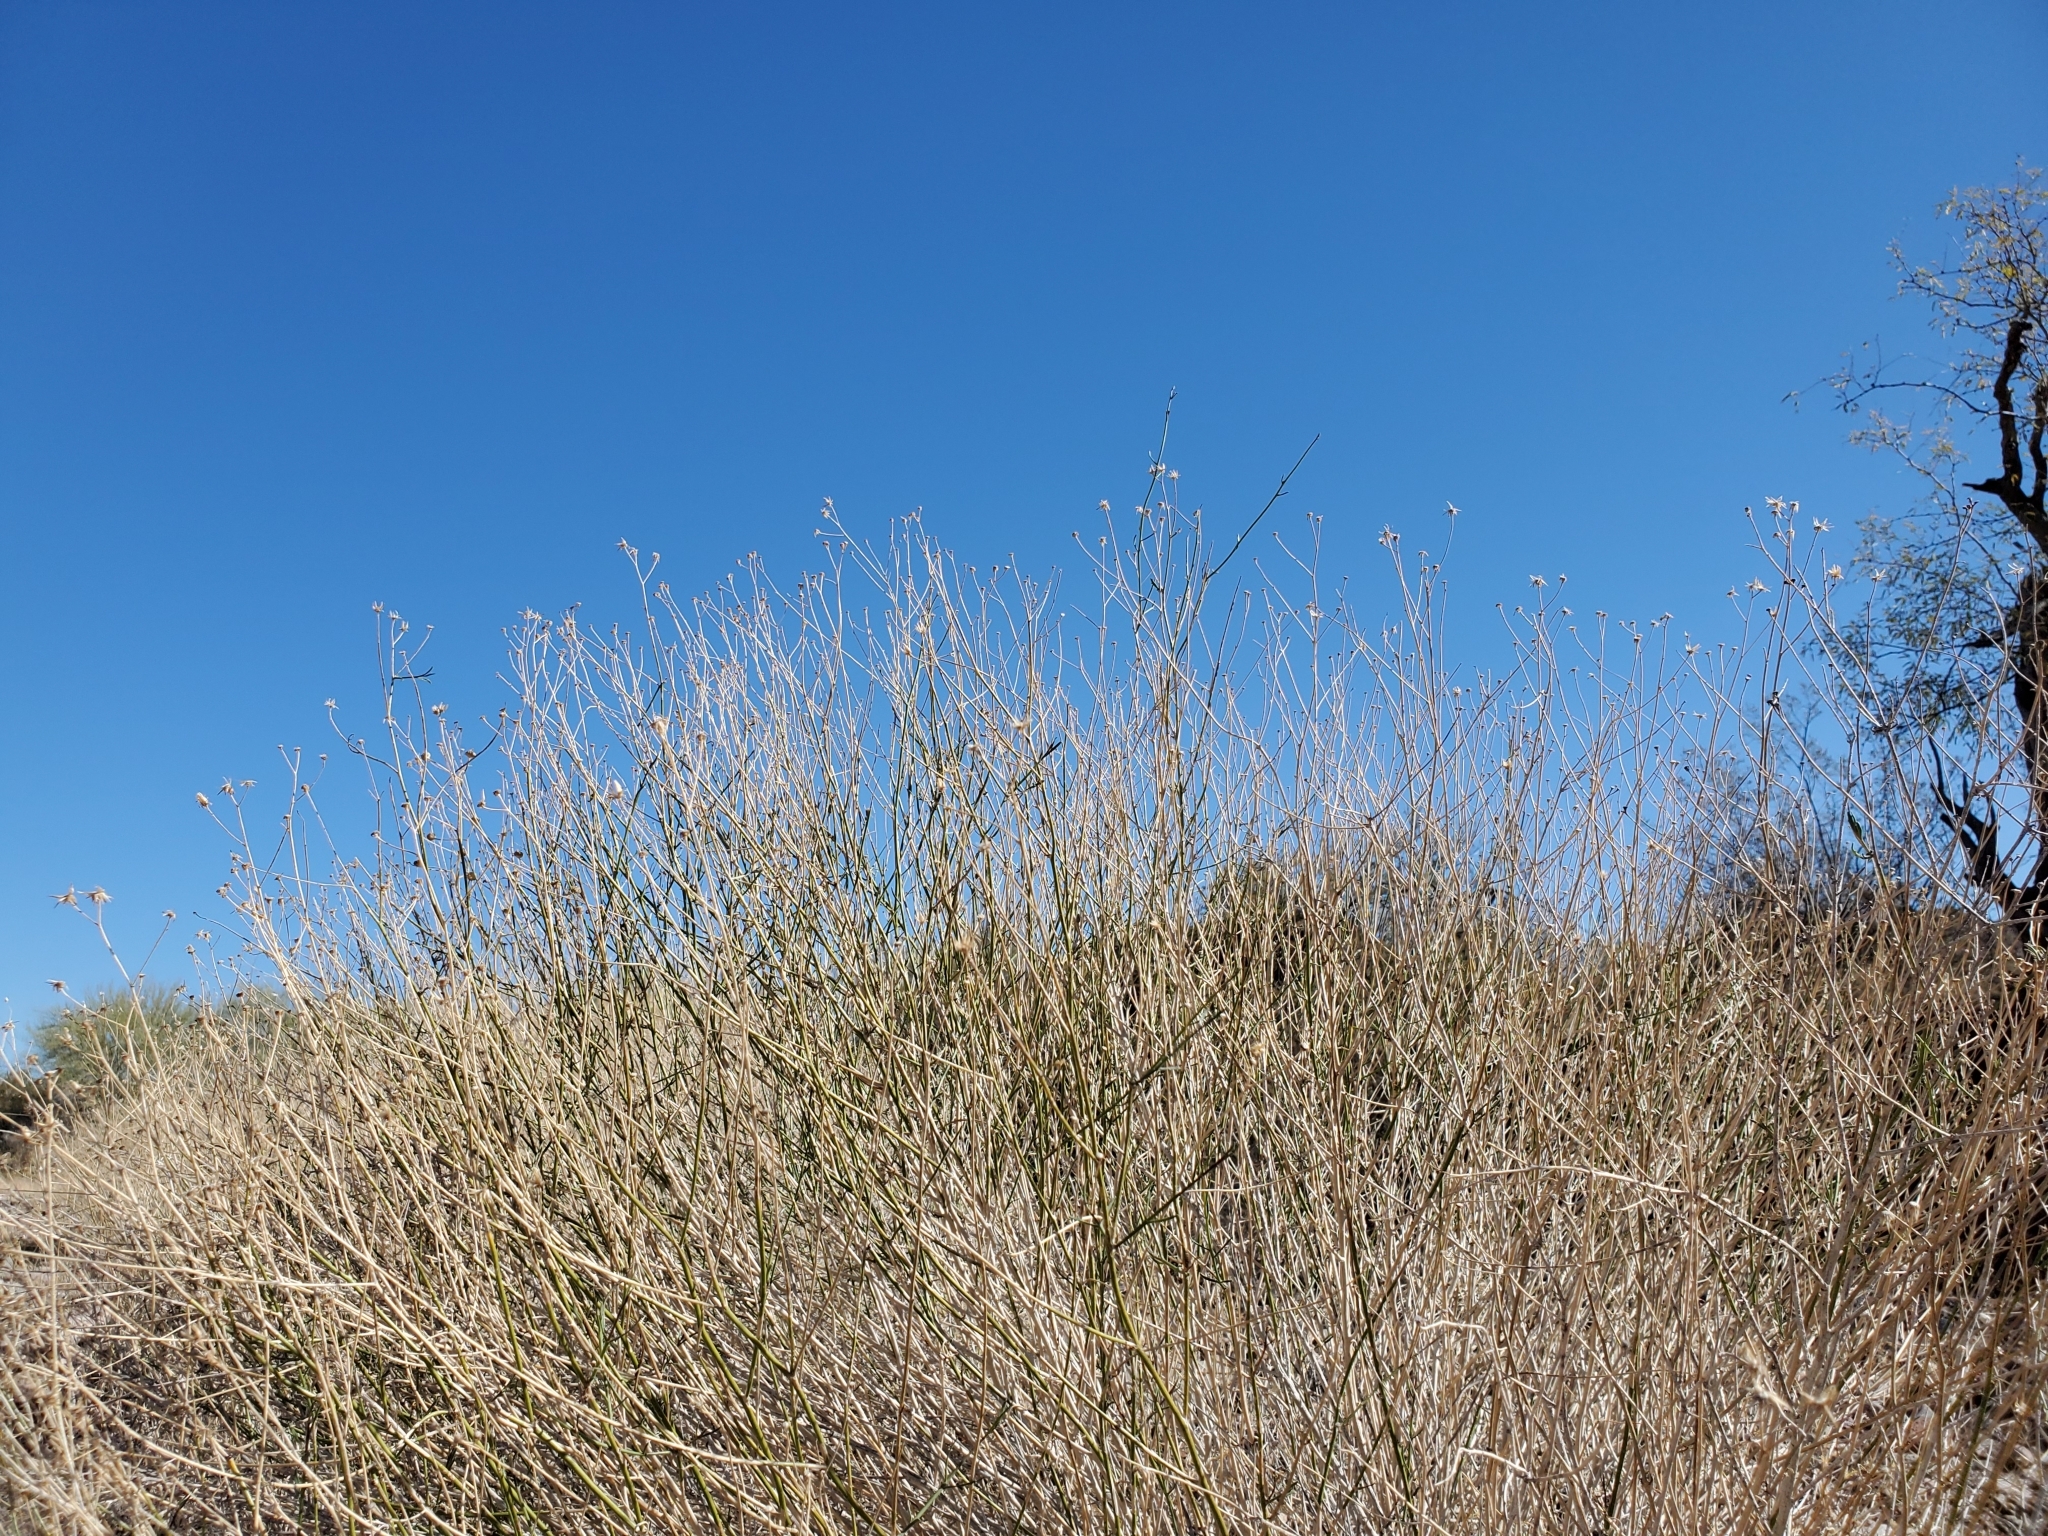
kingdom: Plantae
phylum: Tracheophyta
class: Magnoliopsida
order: Asterales
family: Asteraceae
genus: Bebbia
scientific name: Bebbia juncea
